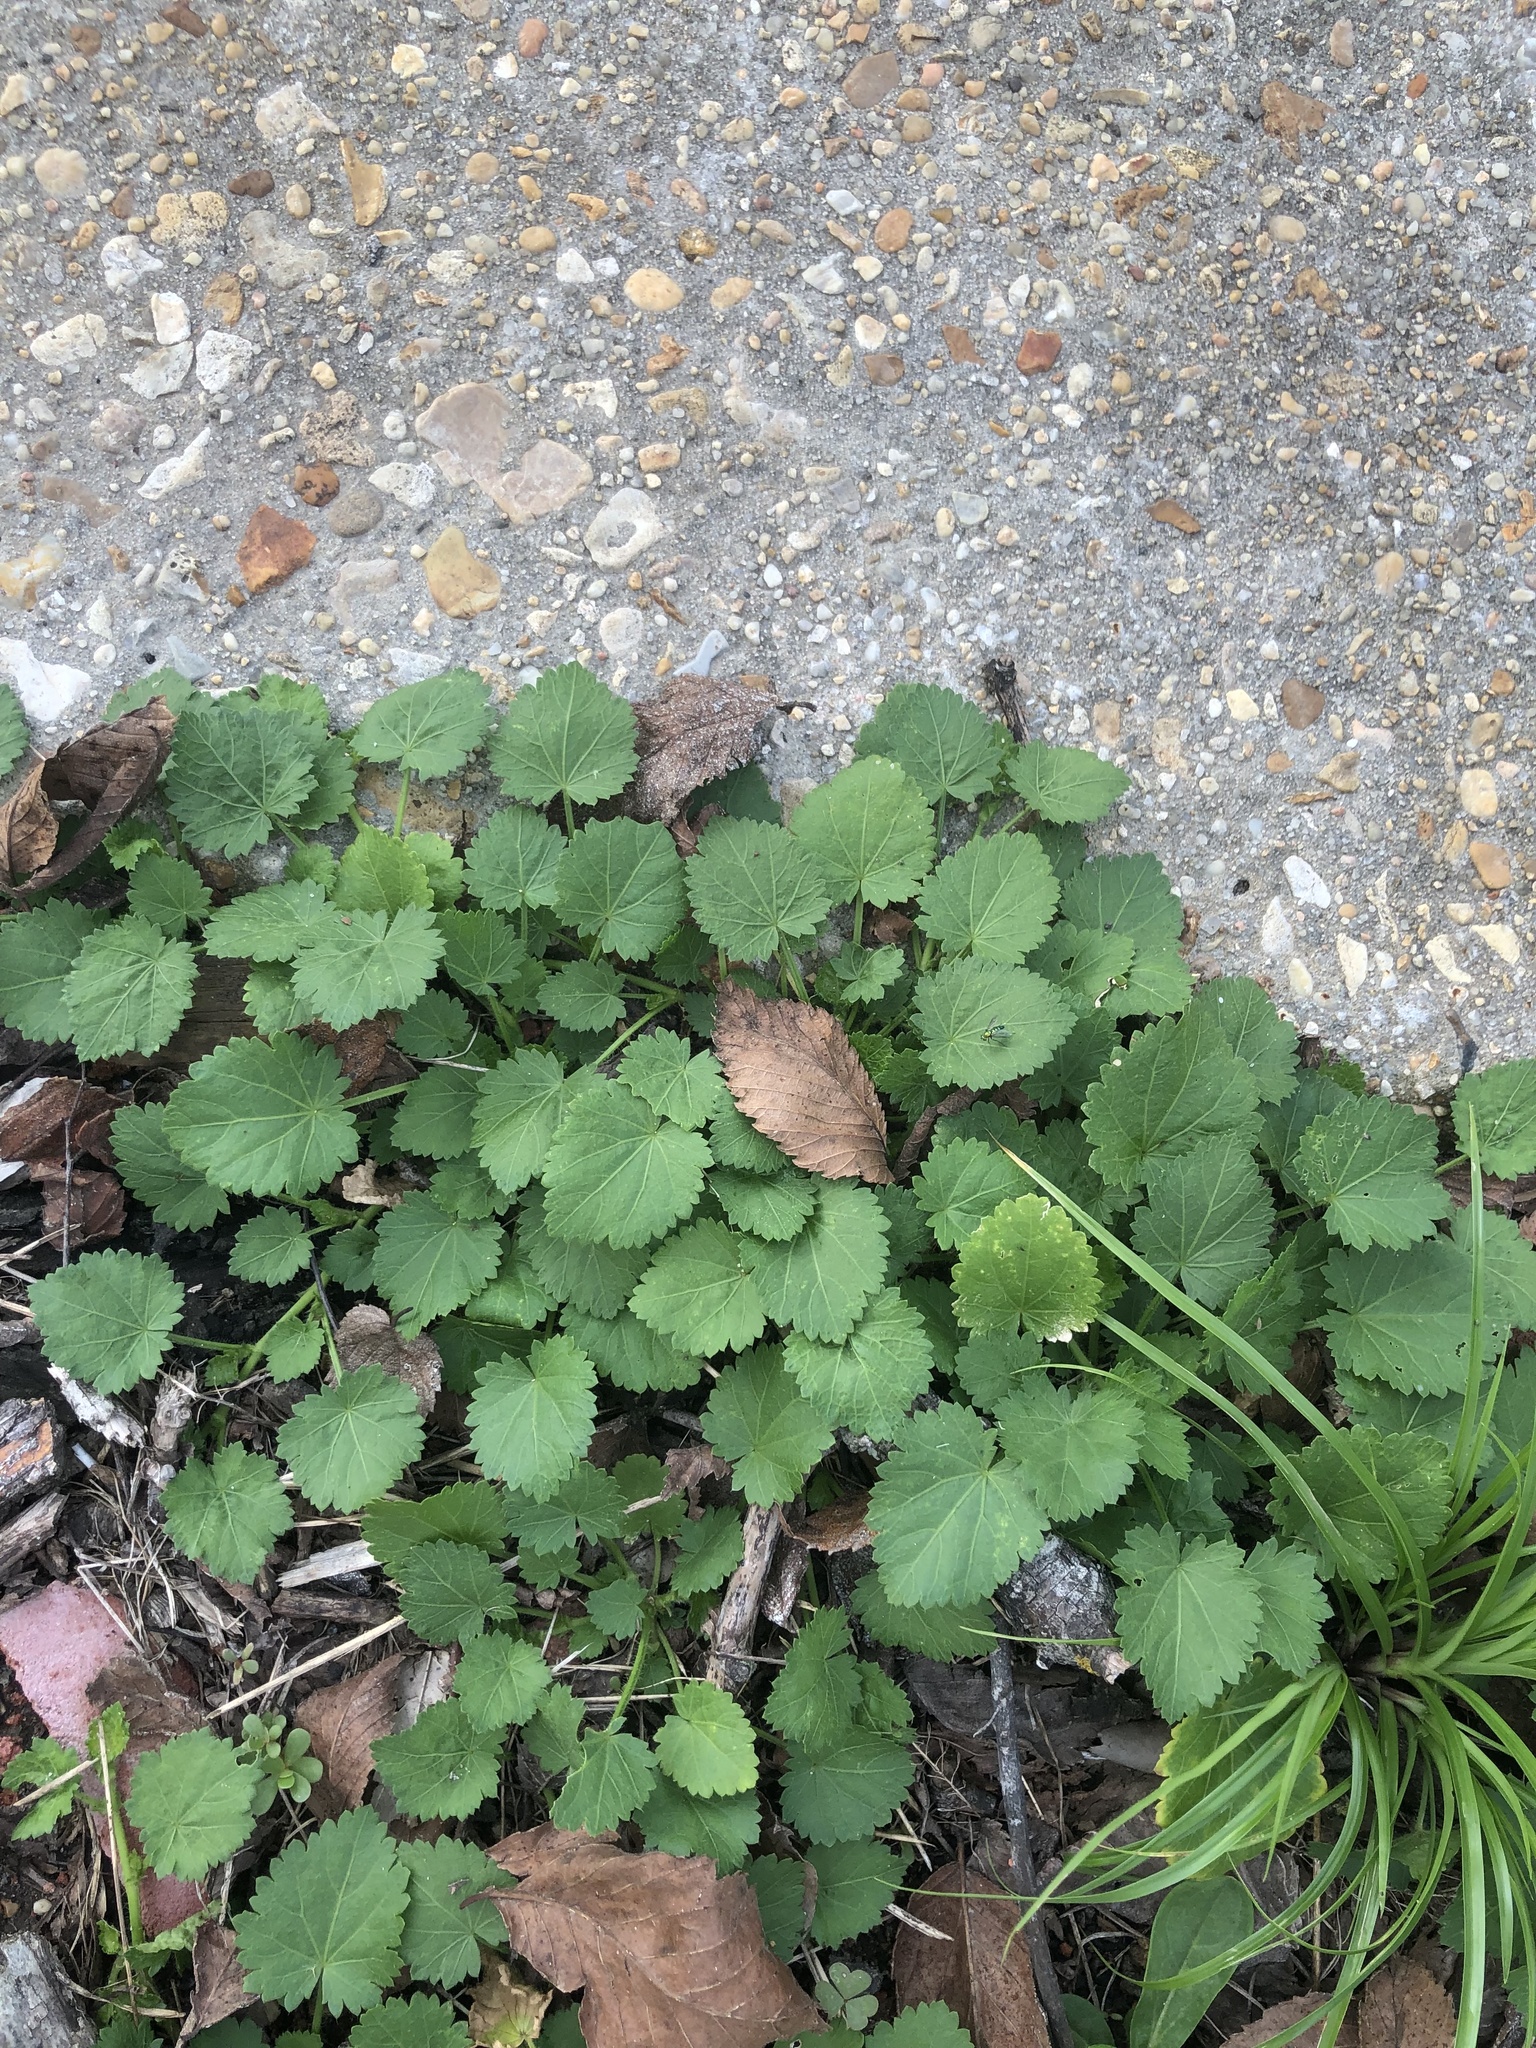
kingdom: Plantae
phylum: Tracheophyta
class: Magnoliopsida
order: Malvales
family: Malvaceae
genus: Modiola
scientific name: Modiola caroliniana
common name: Carolina bristlemallow
